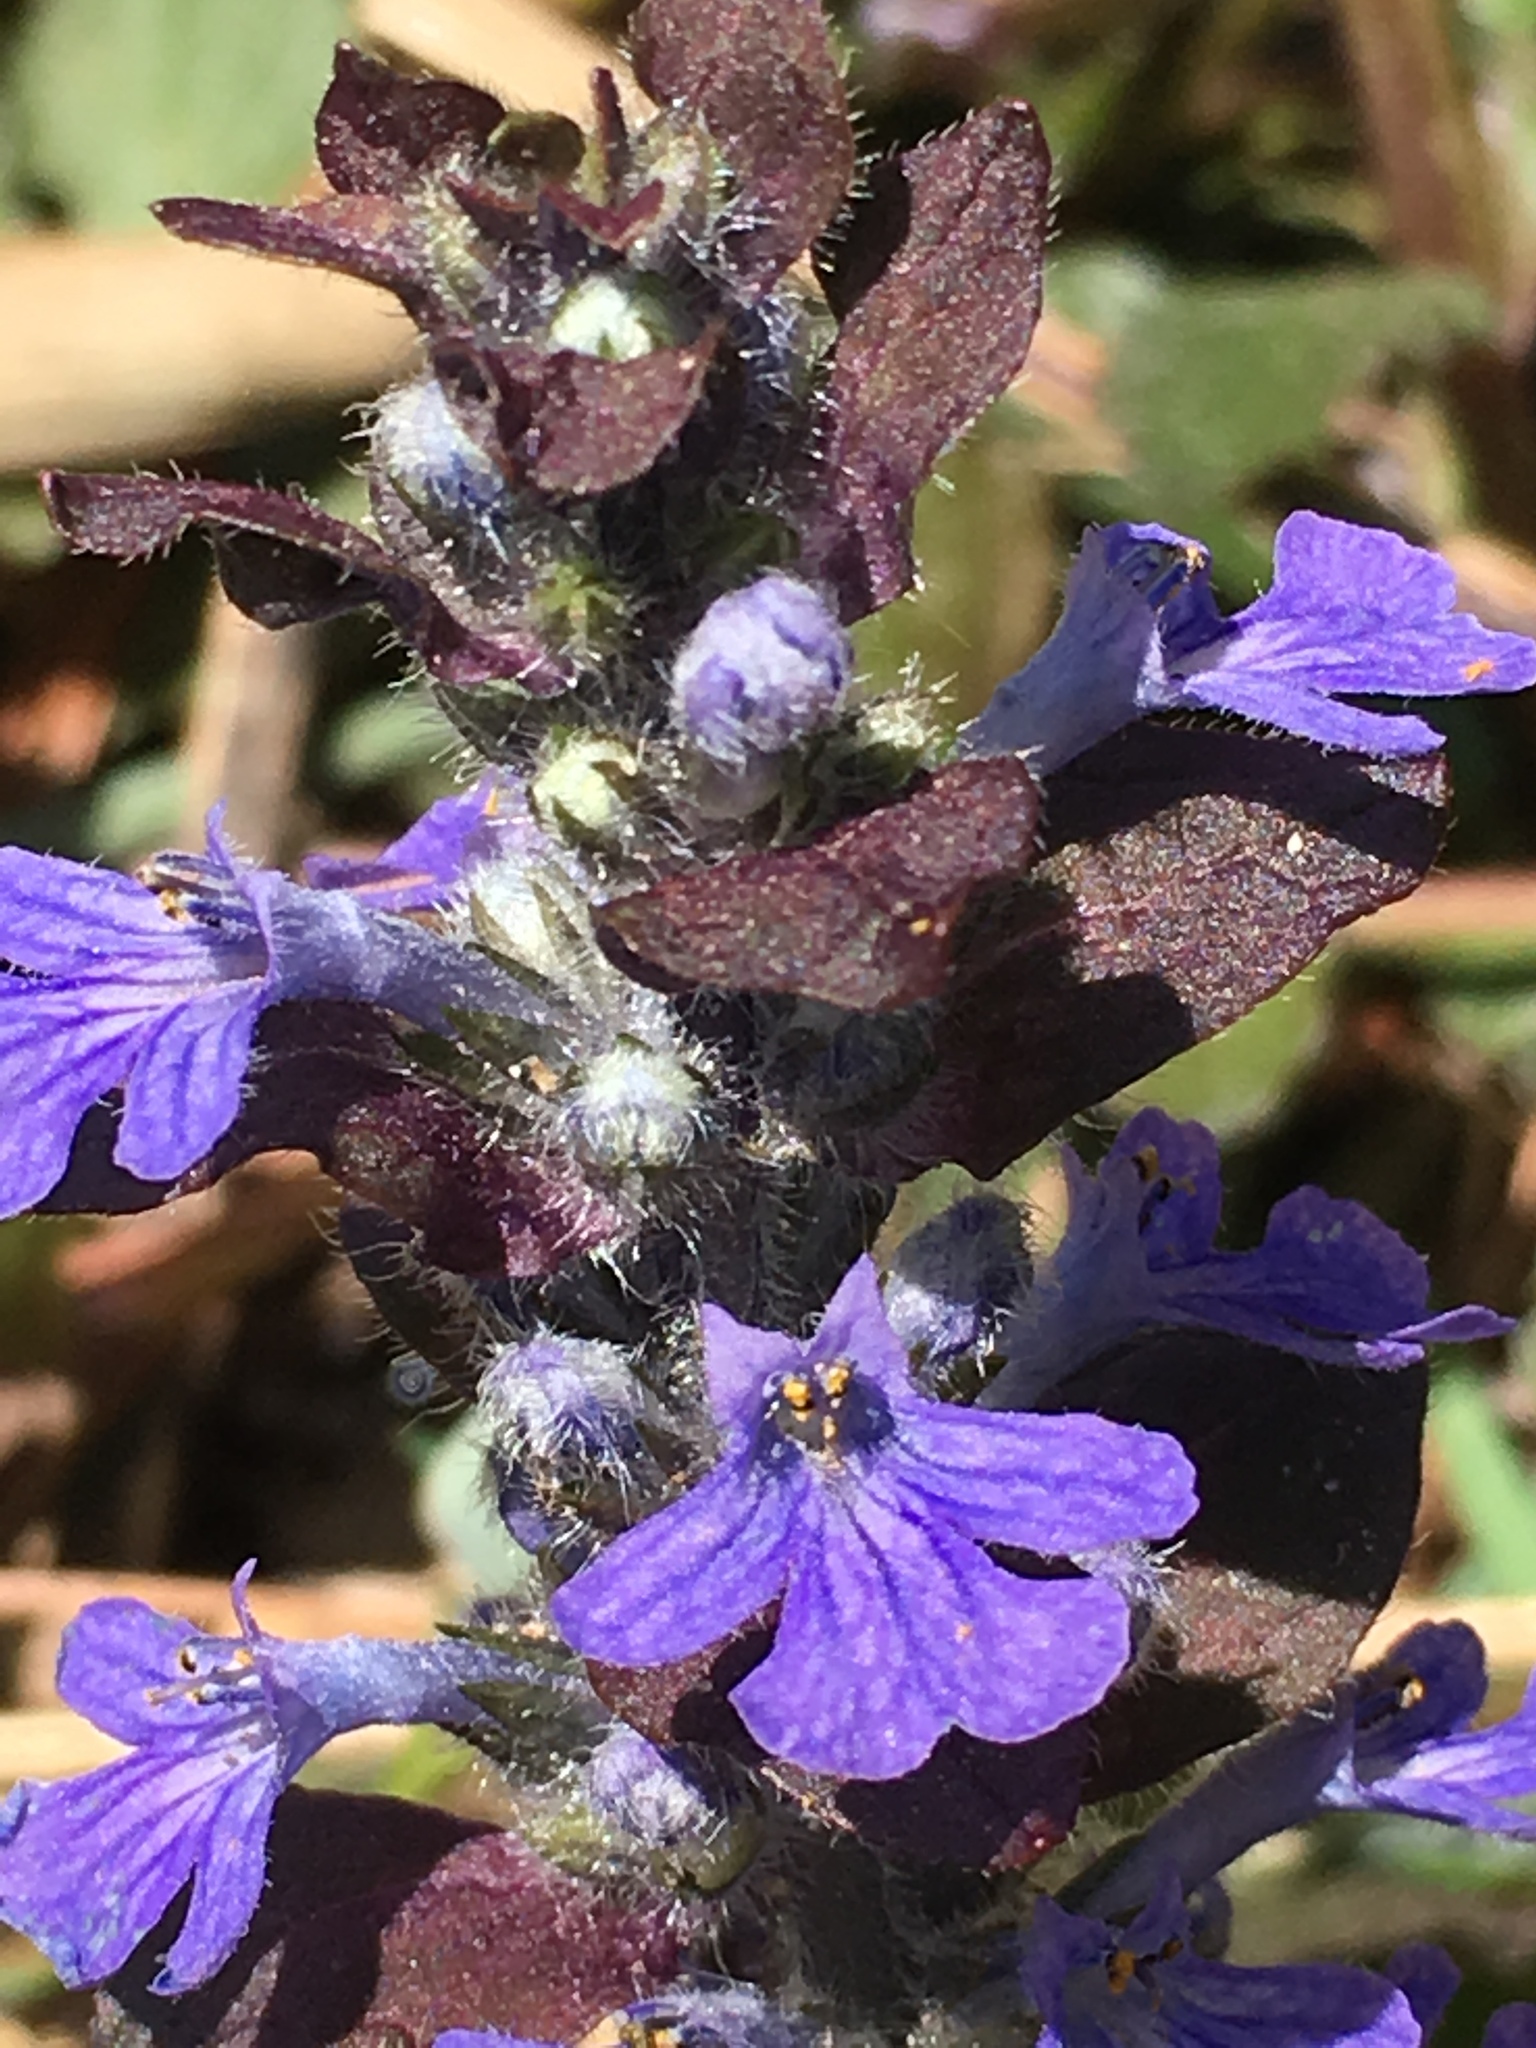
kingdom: Plantae
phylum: Tracheophyta
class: Magnoliopsida
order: Lamiales
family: Lamiaceae
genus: Ajuga
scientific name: Ajuga reptans
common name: Bugle
